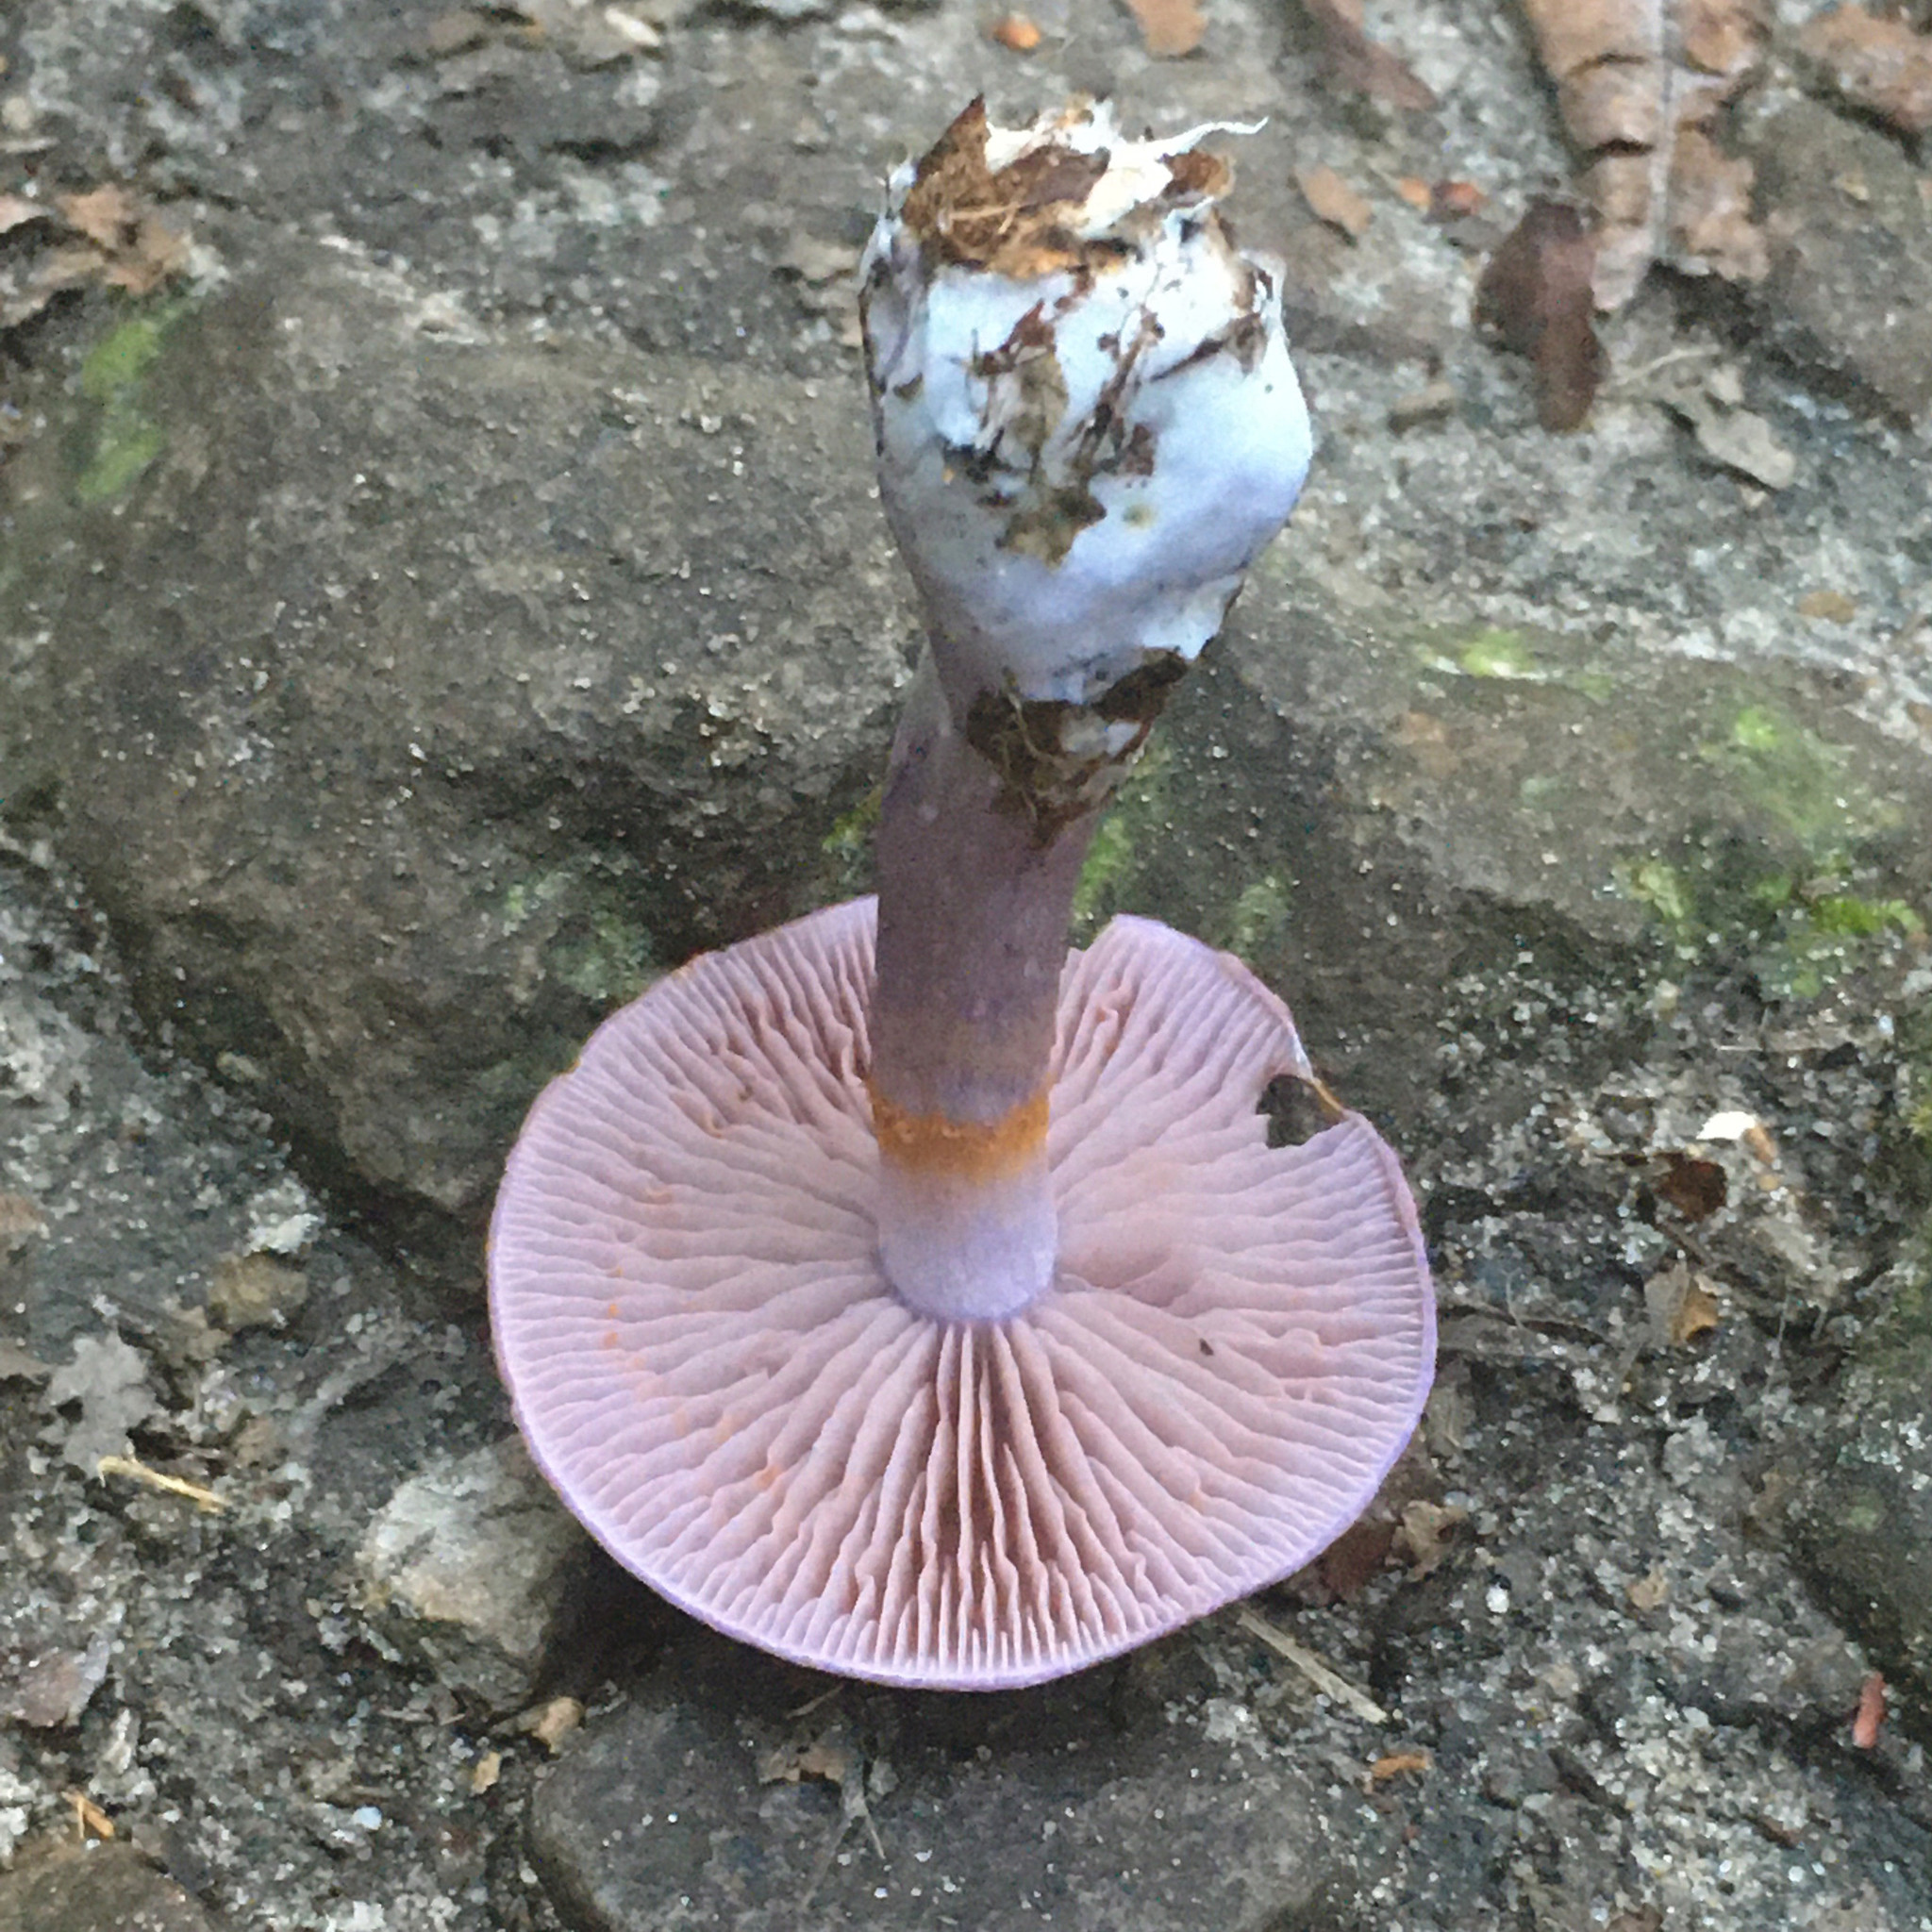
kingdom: Fungi
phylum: Basidiomycota
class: Agaricomycetes
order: Agaricales
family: Cortinariaceae
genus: Cortinarius
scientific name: Cortinarius iodes
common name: Viscid violet cort
